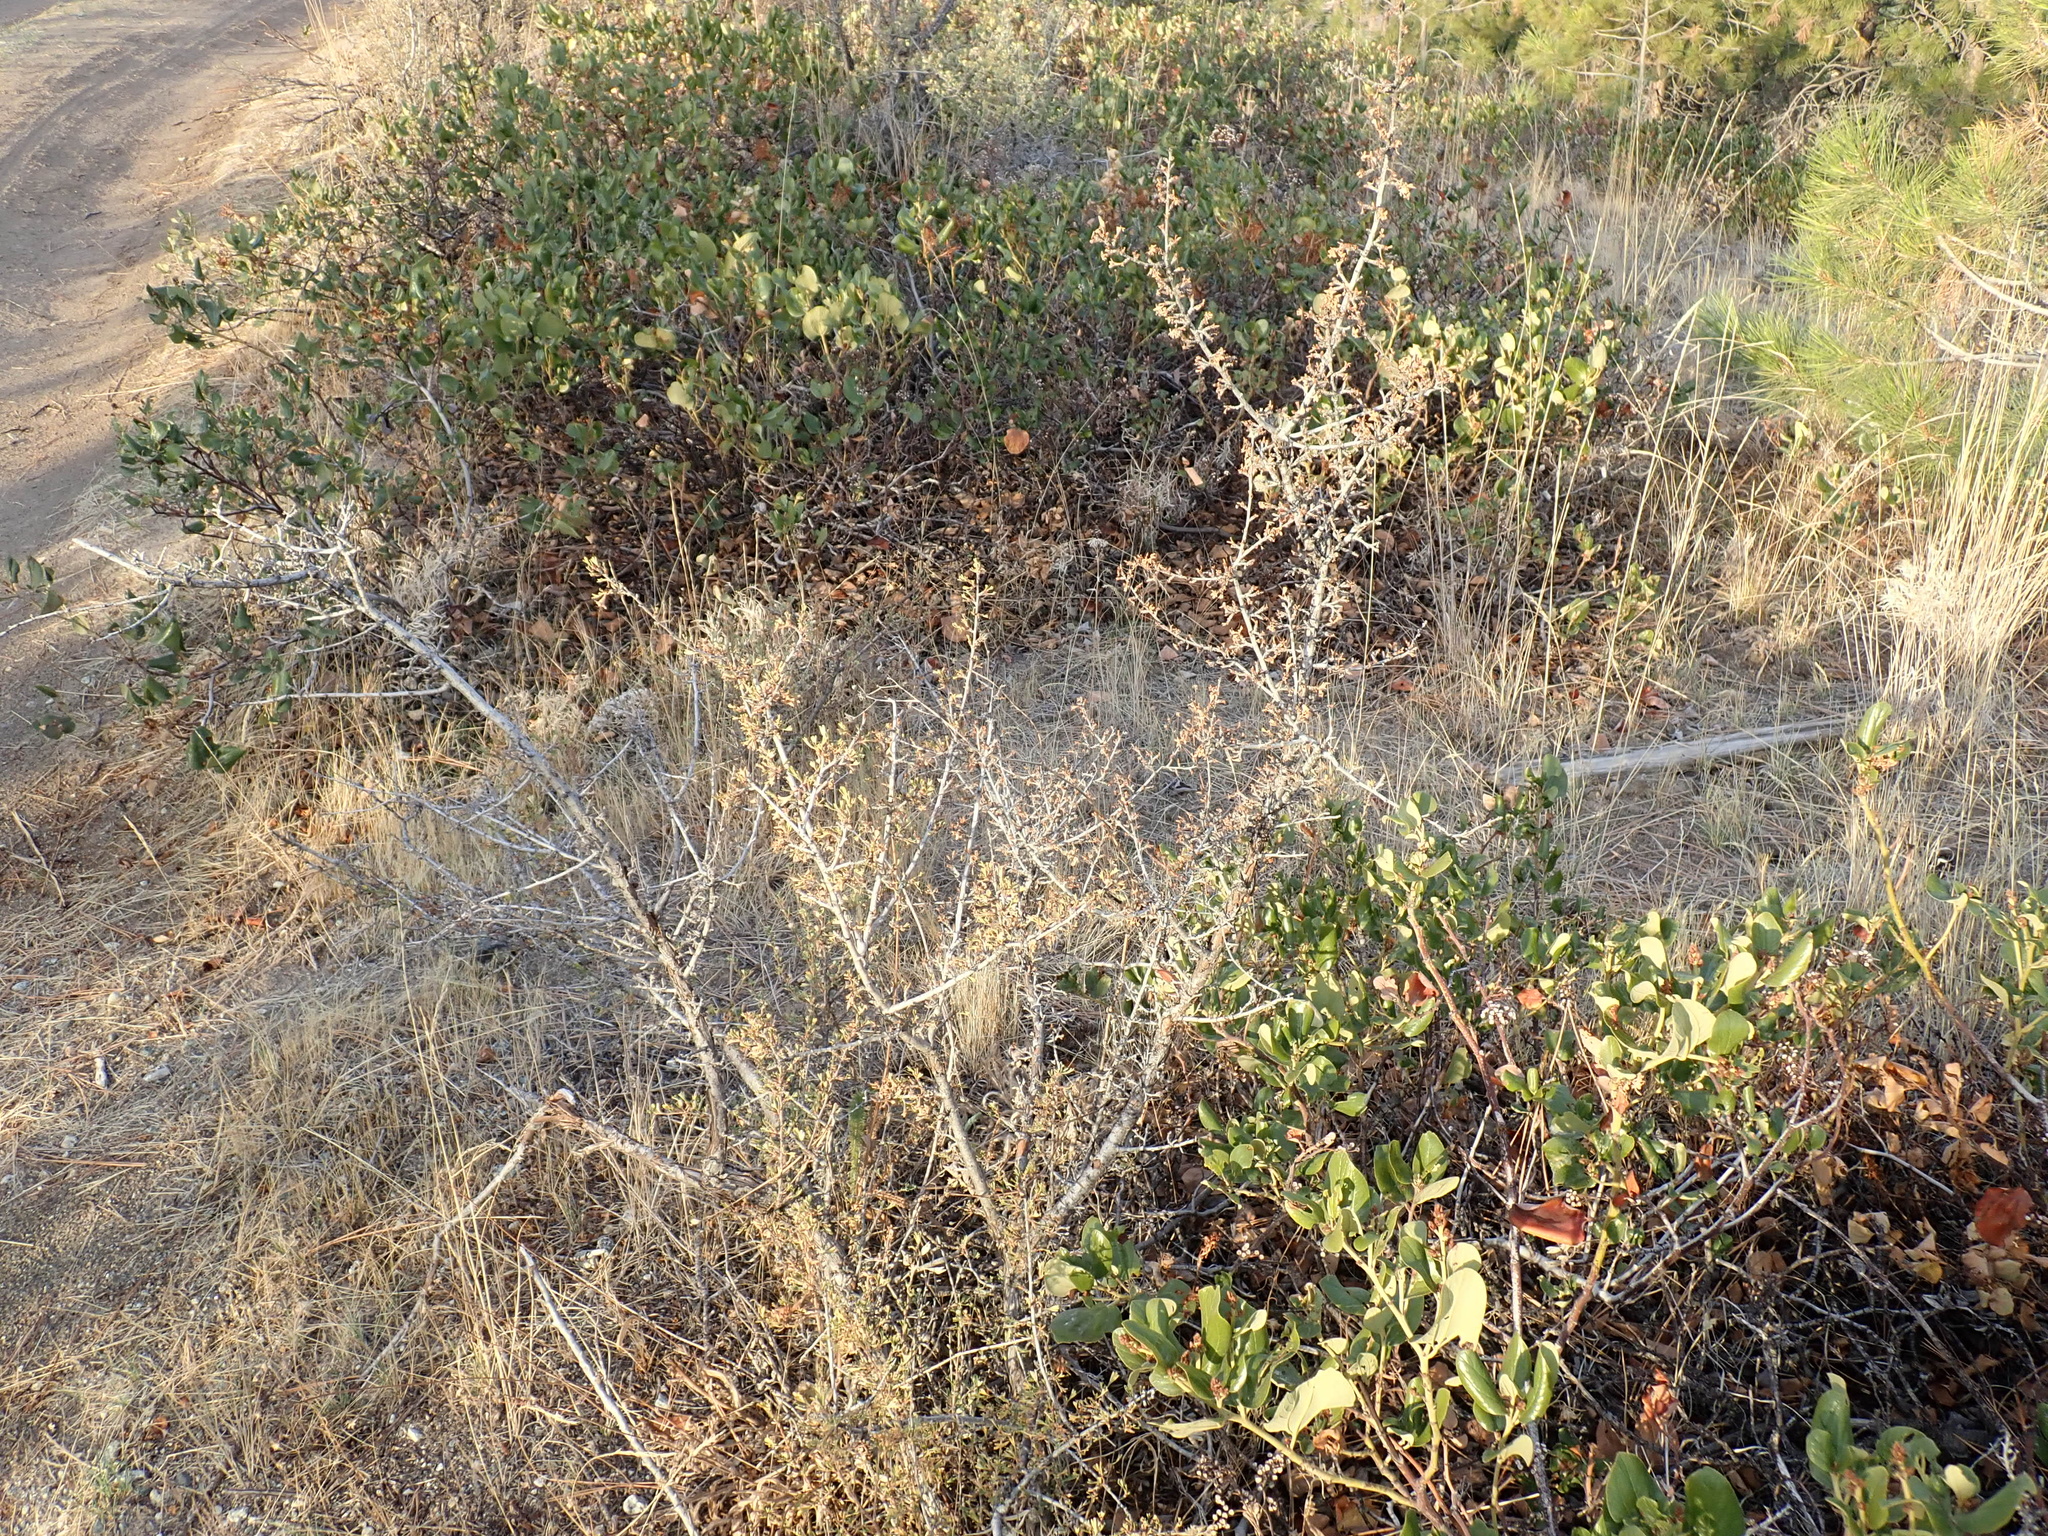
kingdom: Plantae
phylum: Tracheophyta
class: Magnoliopsida
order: Rosales
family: Rosaceae
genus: Purshia
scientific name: Purshia tridentata
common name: Antelope bitterbrush
